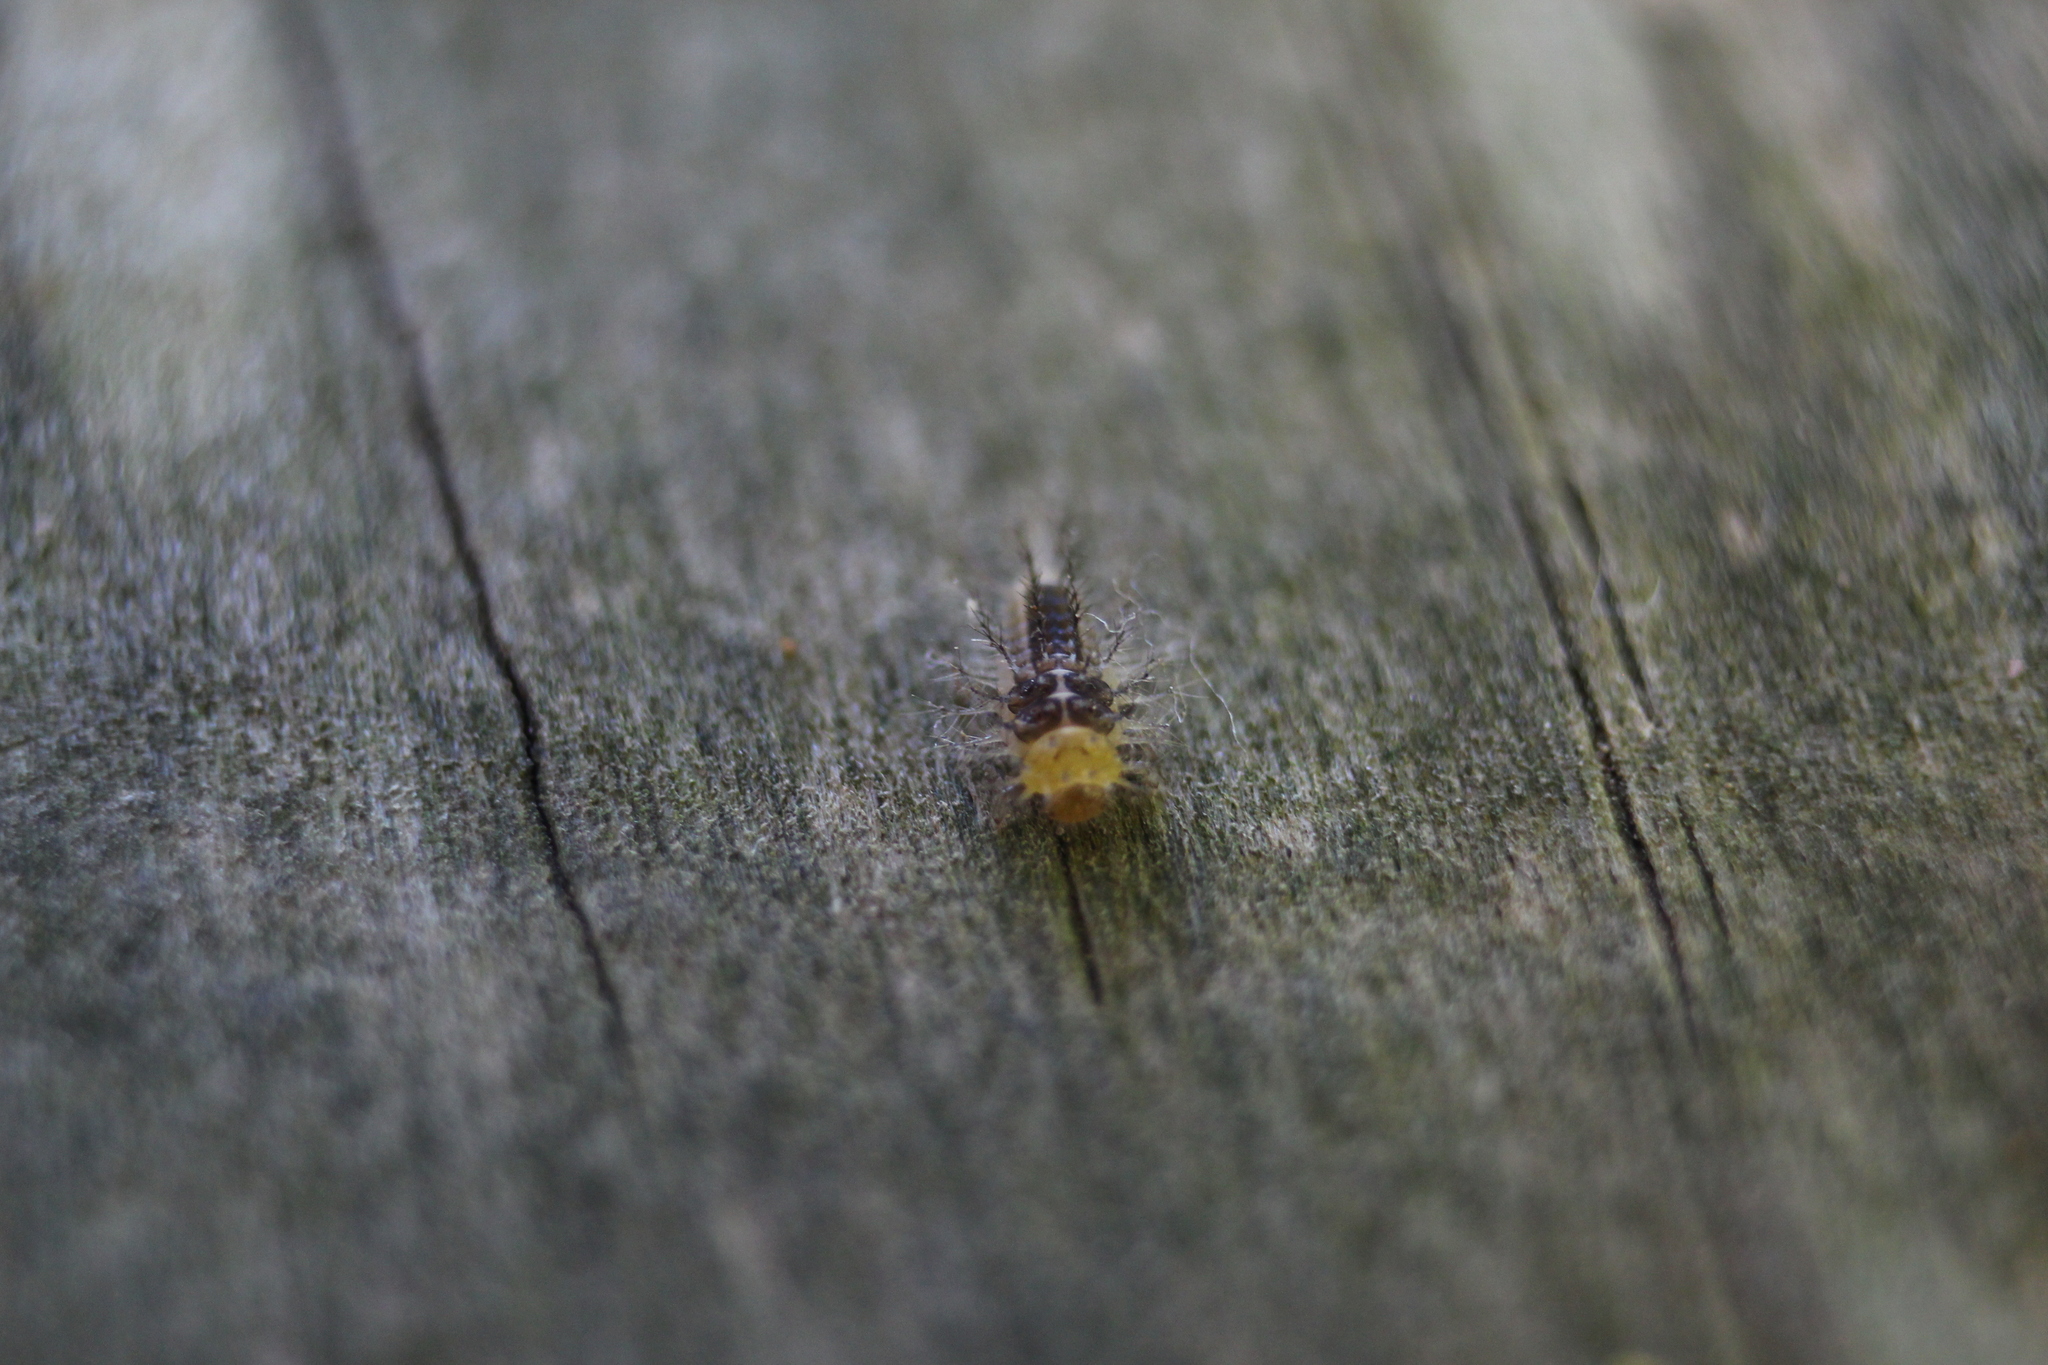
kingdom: Animalia
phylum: Arthropoda
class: Insecta
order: Coleoptera
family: Coccinellidae
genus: Halmus
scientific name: Halmus chalybeus
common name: Steel blue ladybird beetle
